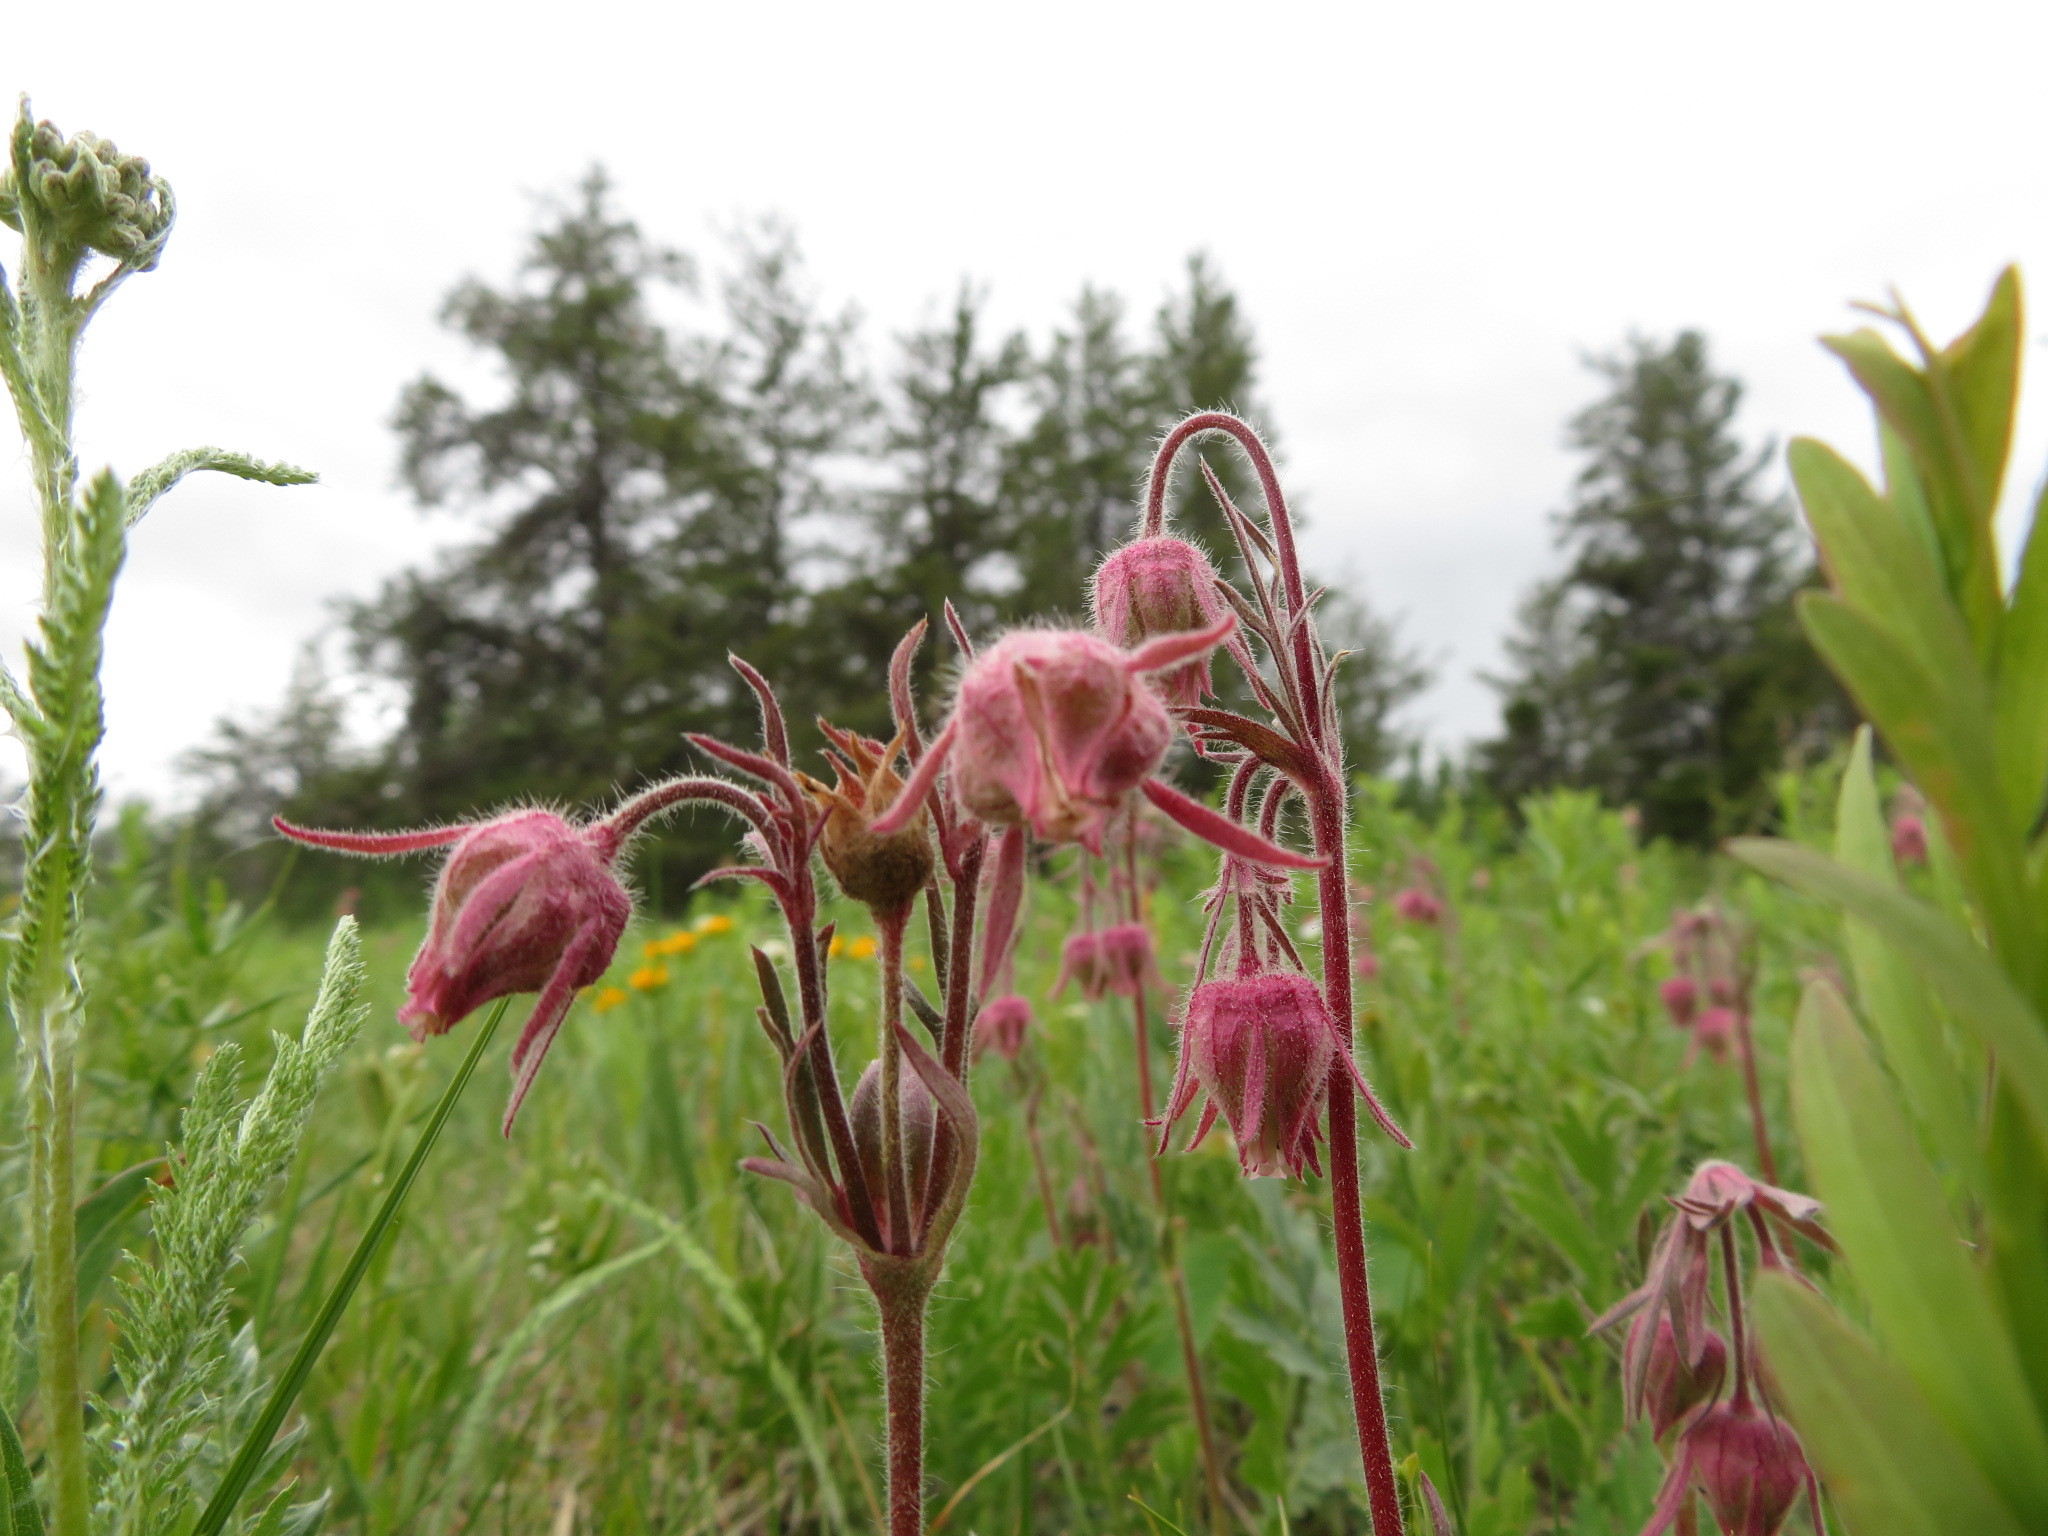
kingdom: Plantae
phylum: Tracheophyta
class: Magnoliopsida
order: Rosales
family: Rosaceae
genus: Geum
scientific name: Geum triflorum
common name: Old man's whiskers
